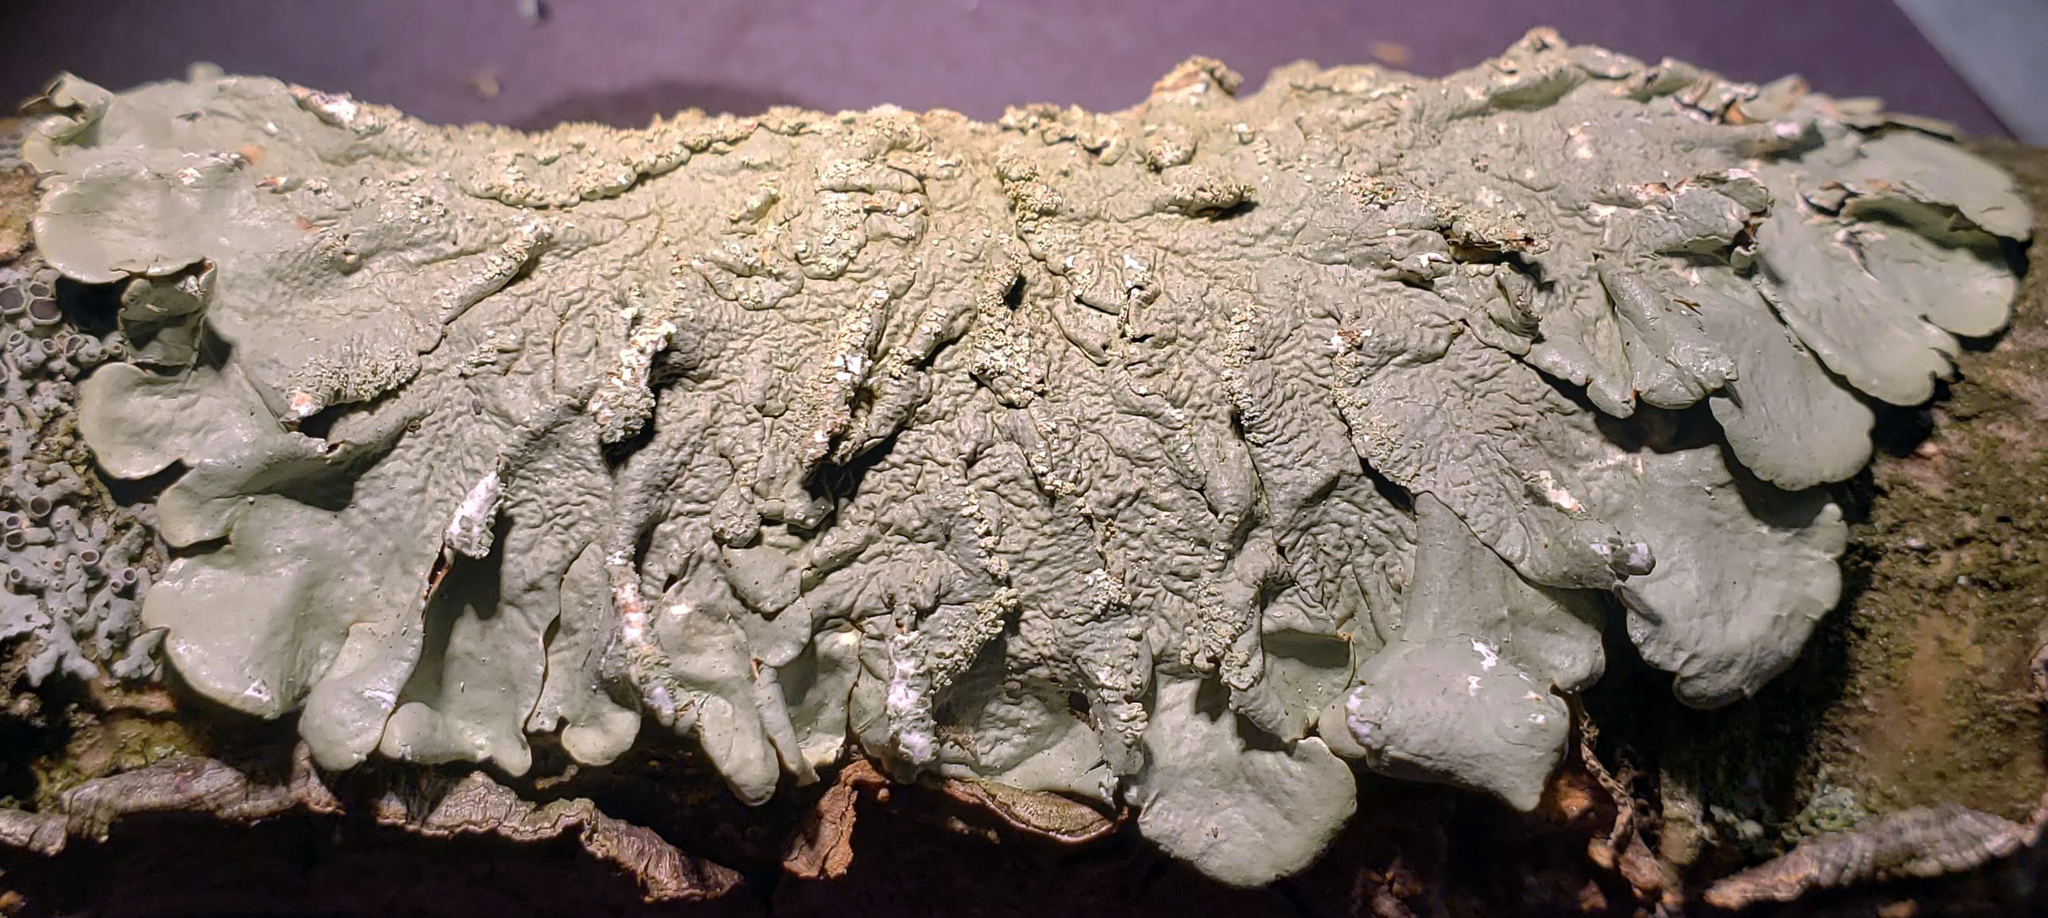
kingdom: Fungi
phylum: Ascomycota
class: Lecanoromycetes
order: Lecanorales
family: Parmeliaceae
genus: Flavoparmelia
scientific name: Flavoparmelia caperata
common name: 40-mile per hour lichen
